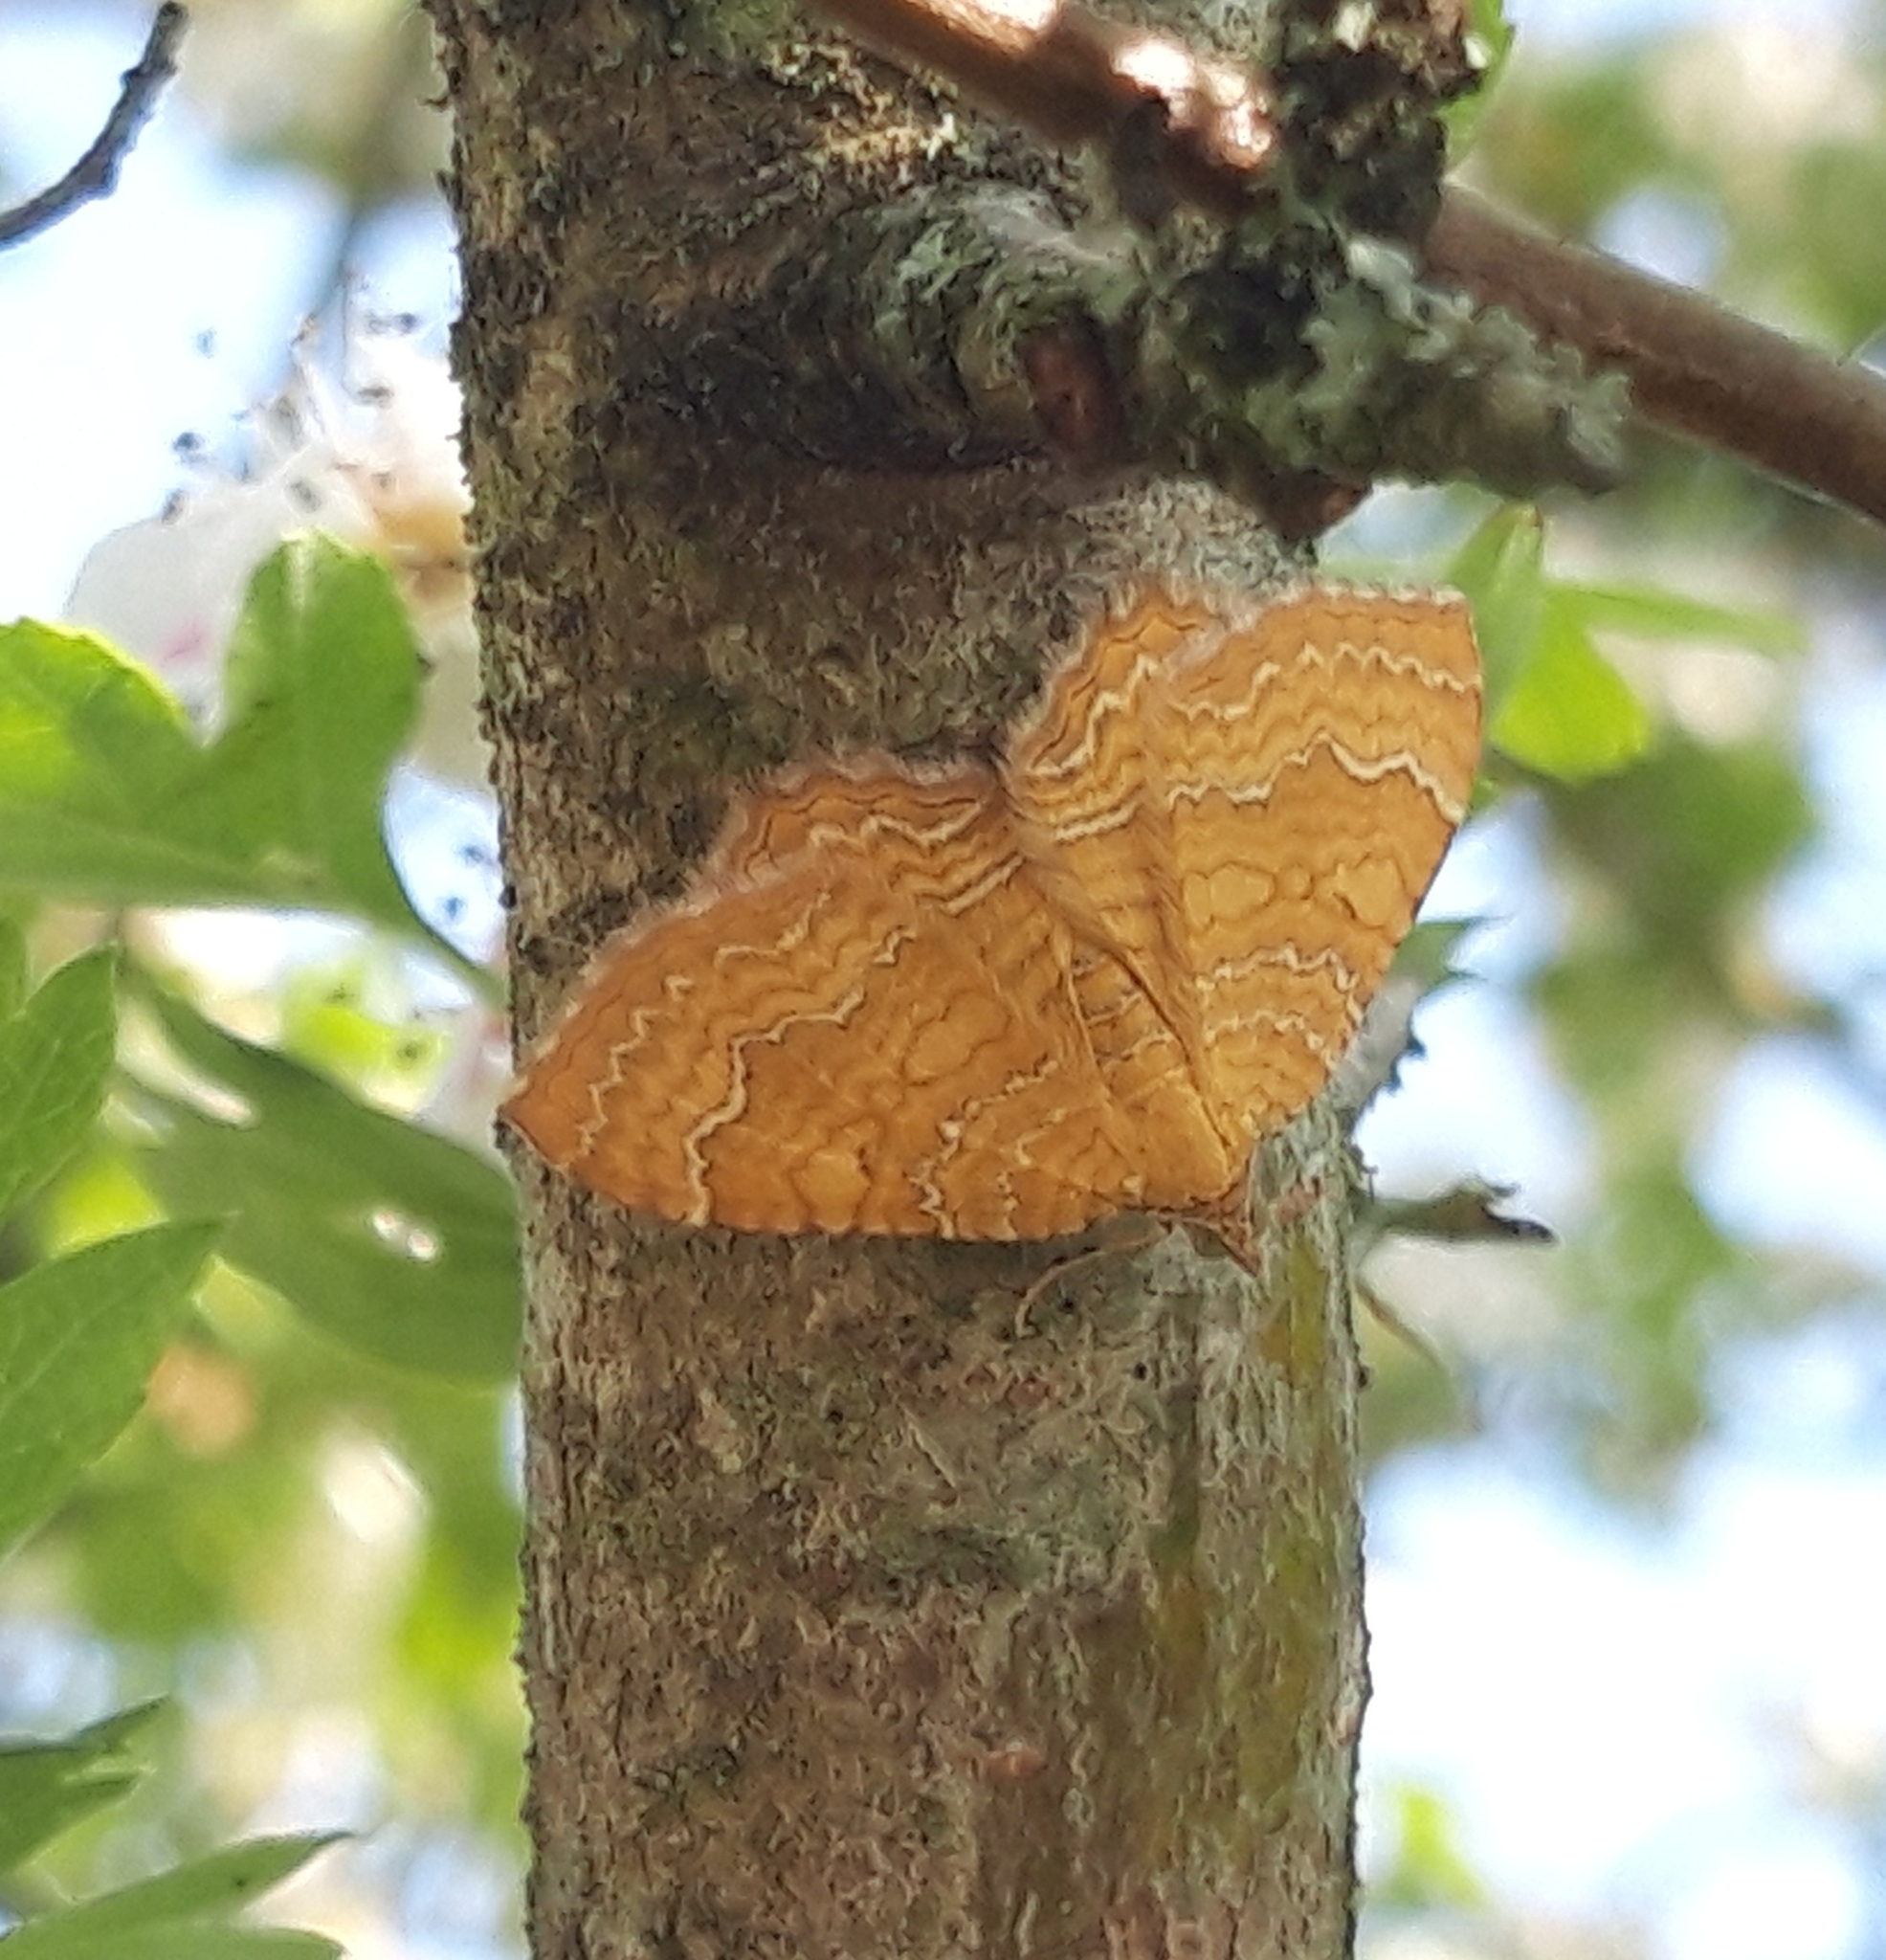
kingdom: Animalia
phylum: Arthropoda
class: Insecta
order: Lepidoptera
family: Geometridae
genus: Camptogramma
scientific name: Camptogramma bilineata
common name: Yellow shell
